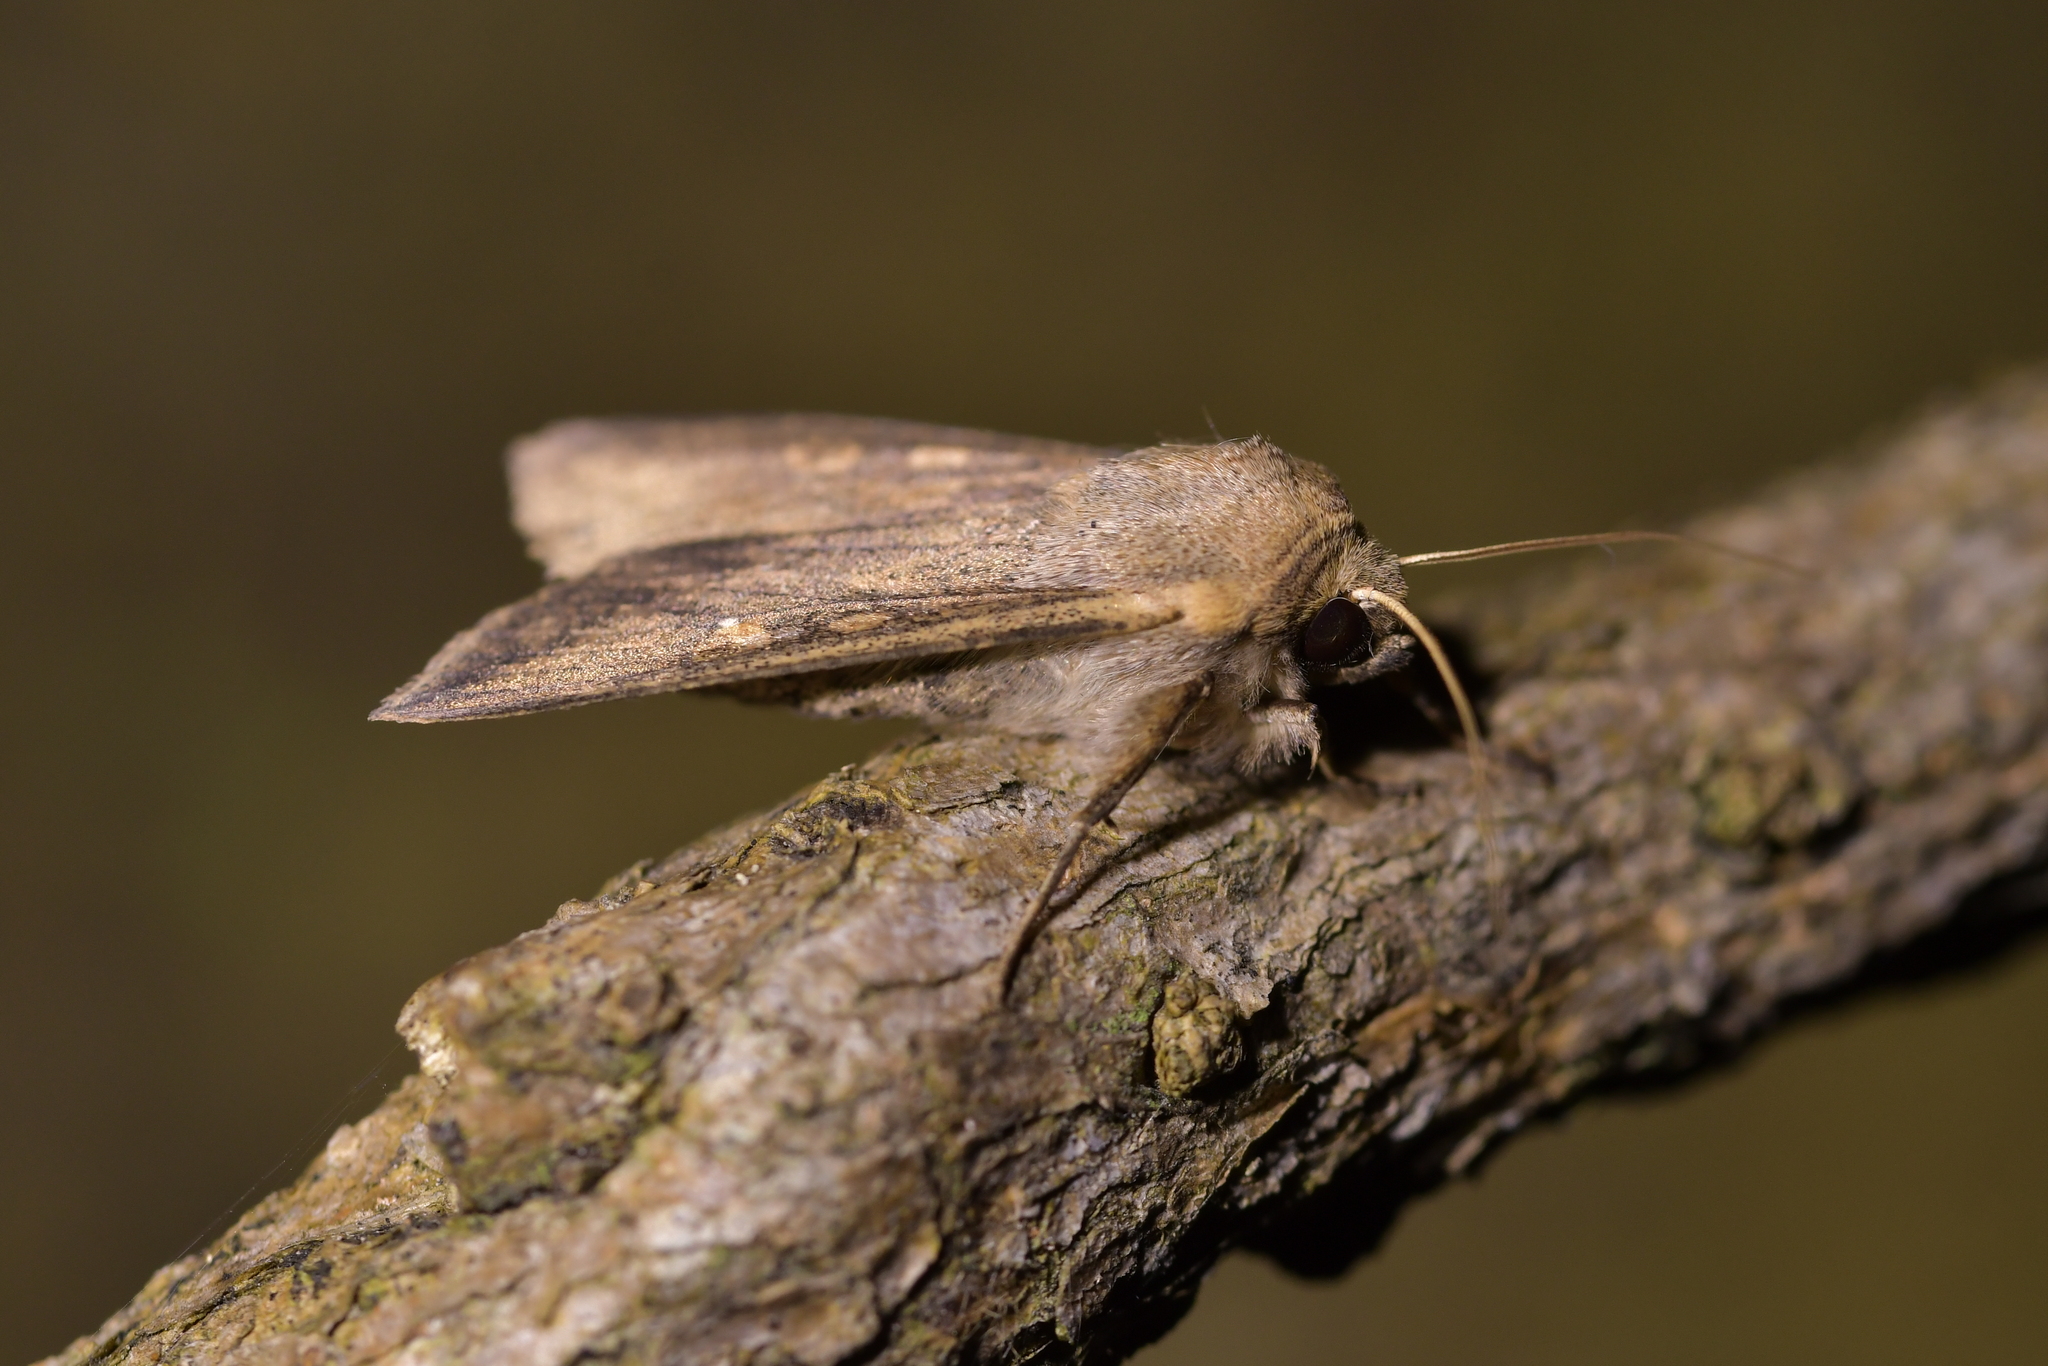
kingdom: Animalia
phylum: Arthropoda
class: Insecta
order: Lepidoptera
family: Noctuidae
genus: Mythimna
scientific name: Mythimna separata
